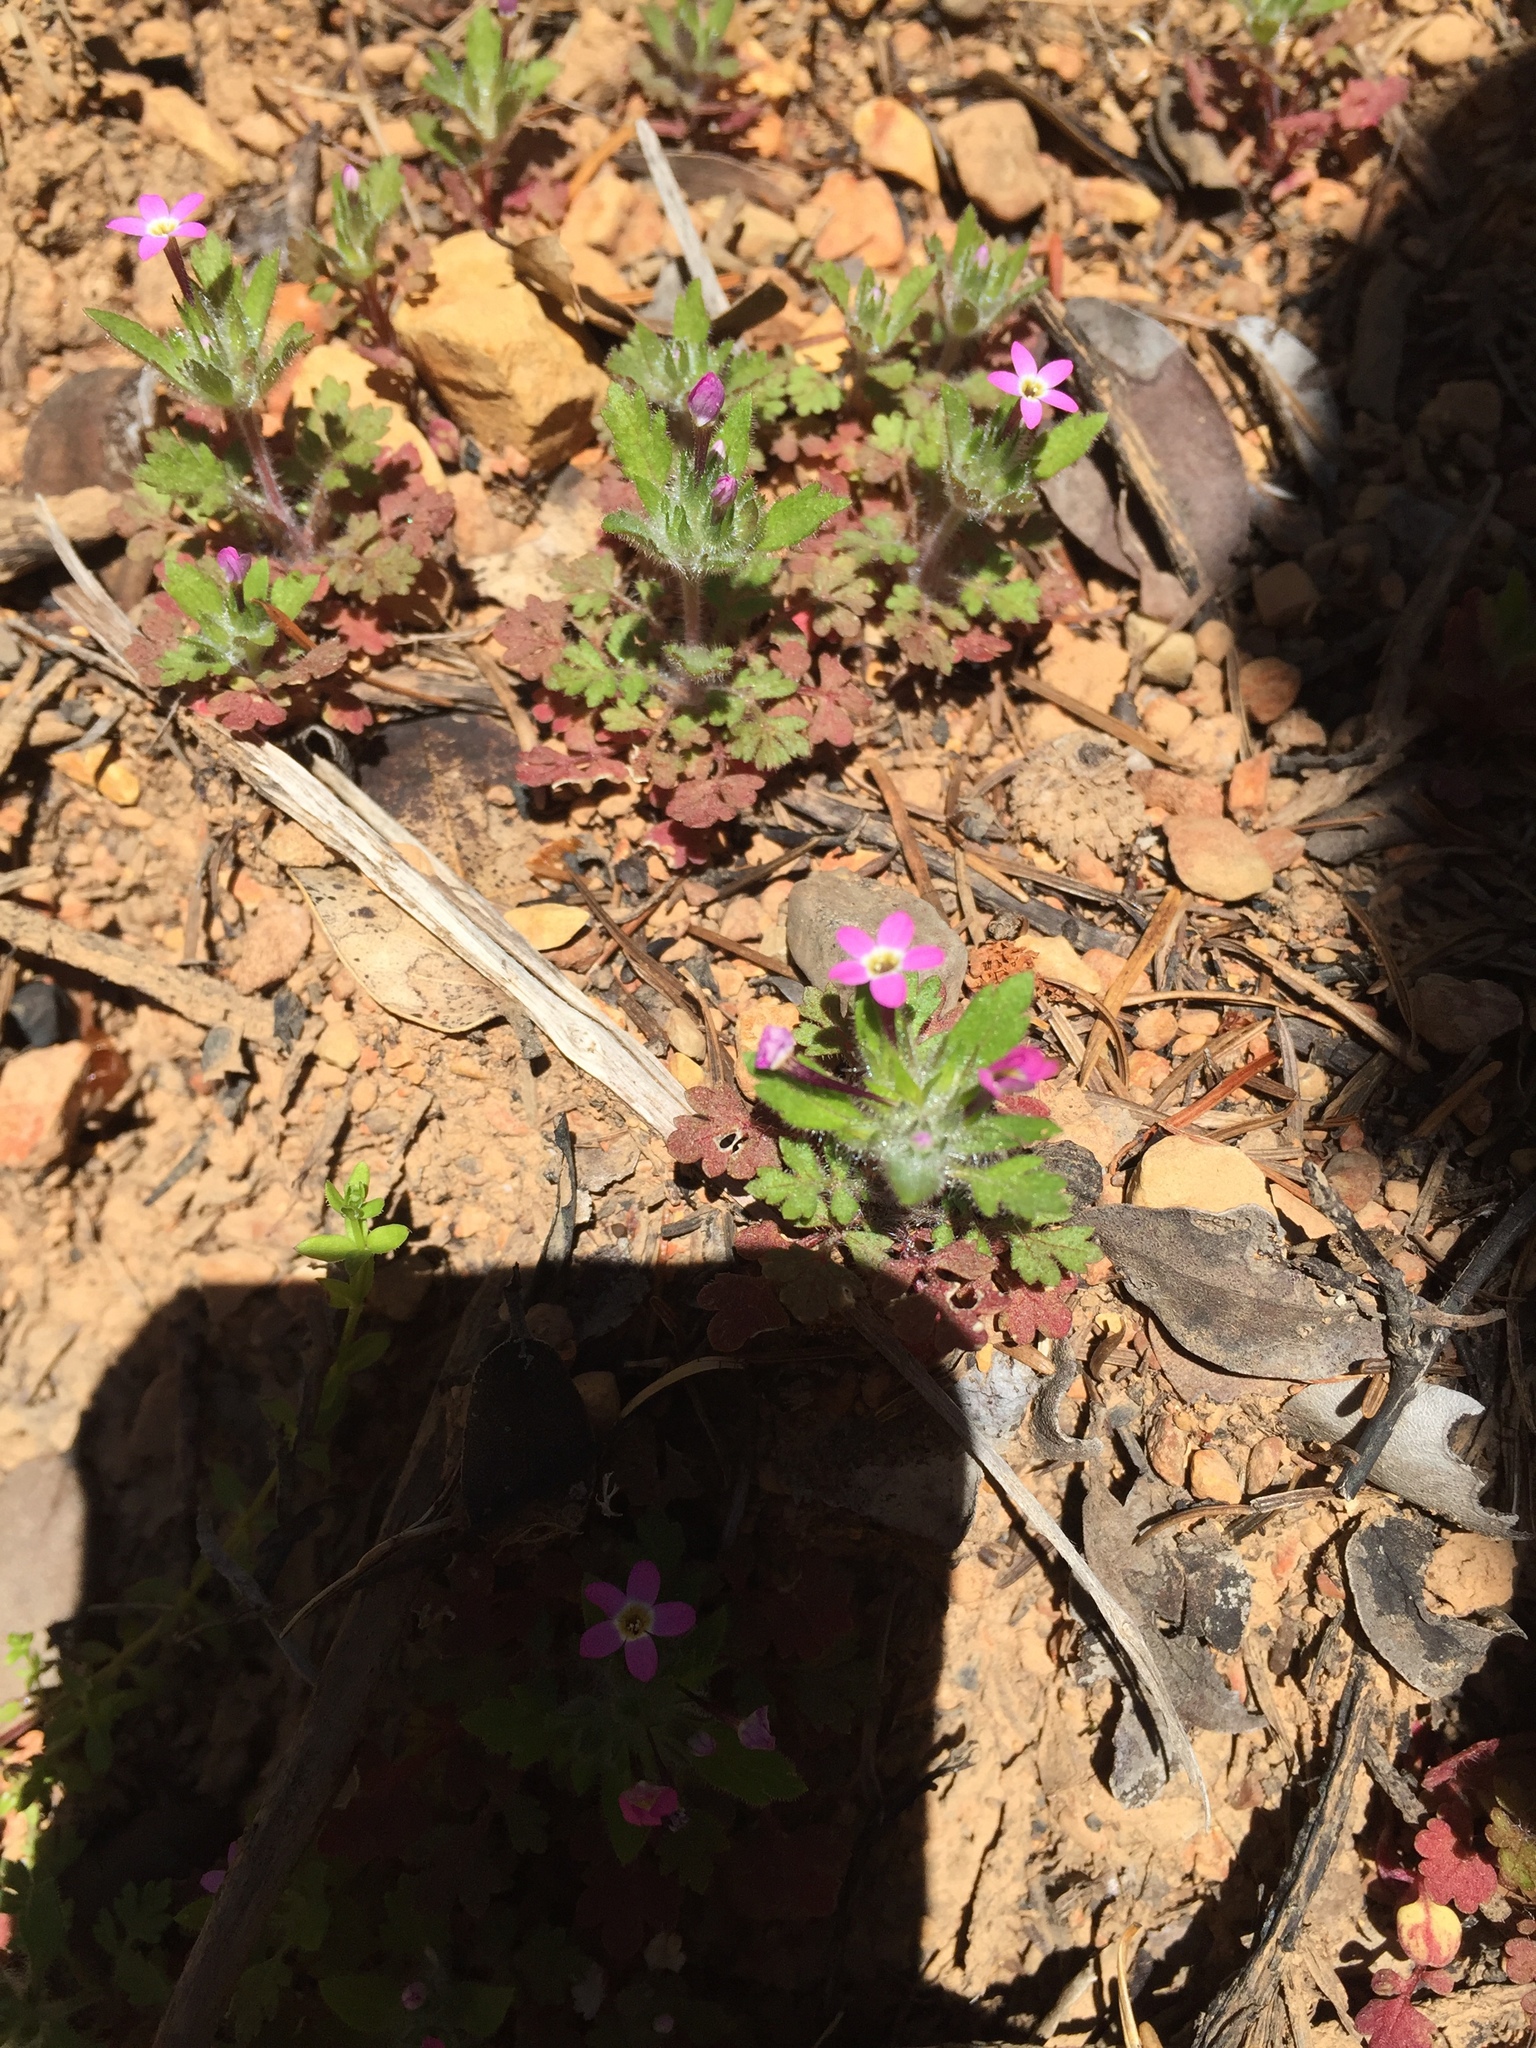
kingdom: Plantae
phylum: Tracheophyta
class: Magnoliopsida
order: Ericales
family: Polemoniaceae
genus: Collomia
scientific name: Collomia heterophylla
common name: Variable-leaved collomia
